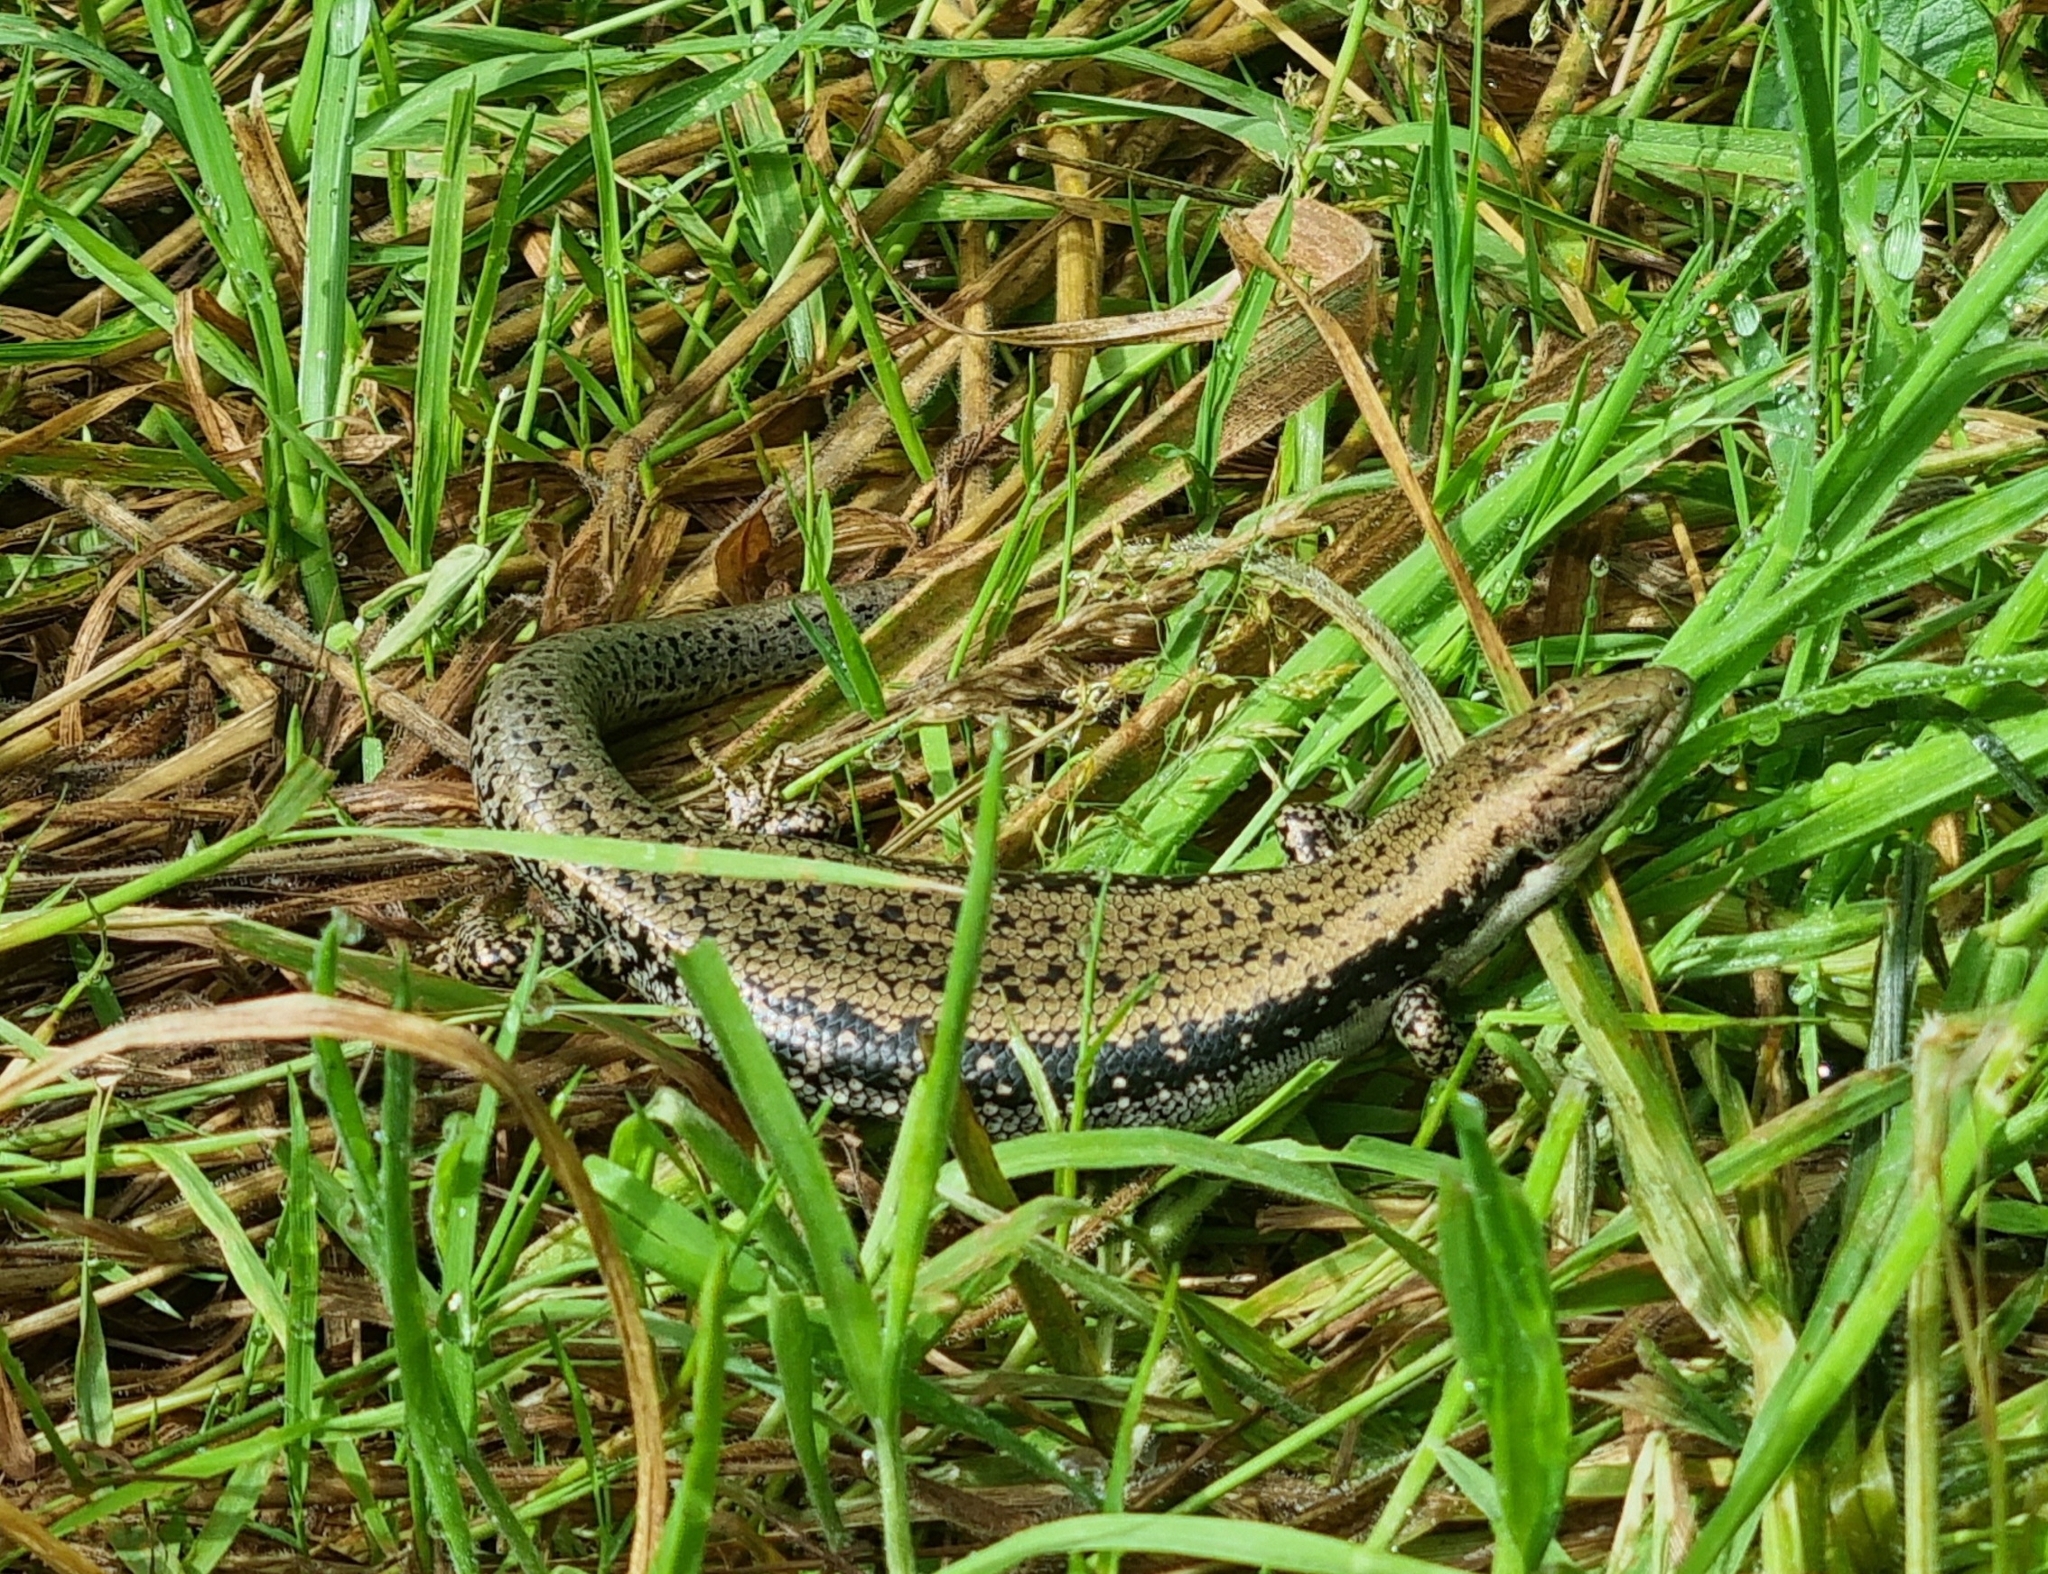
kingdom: Animalia
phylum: Chordata
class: Squamata
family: Scincidae
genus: Eulamprus
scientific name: Eulamprus tympanum
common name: Cool-temperate water-skink
